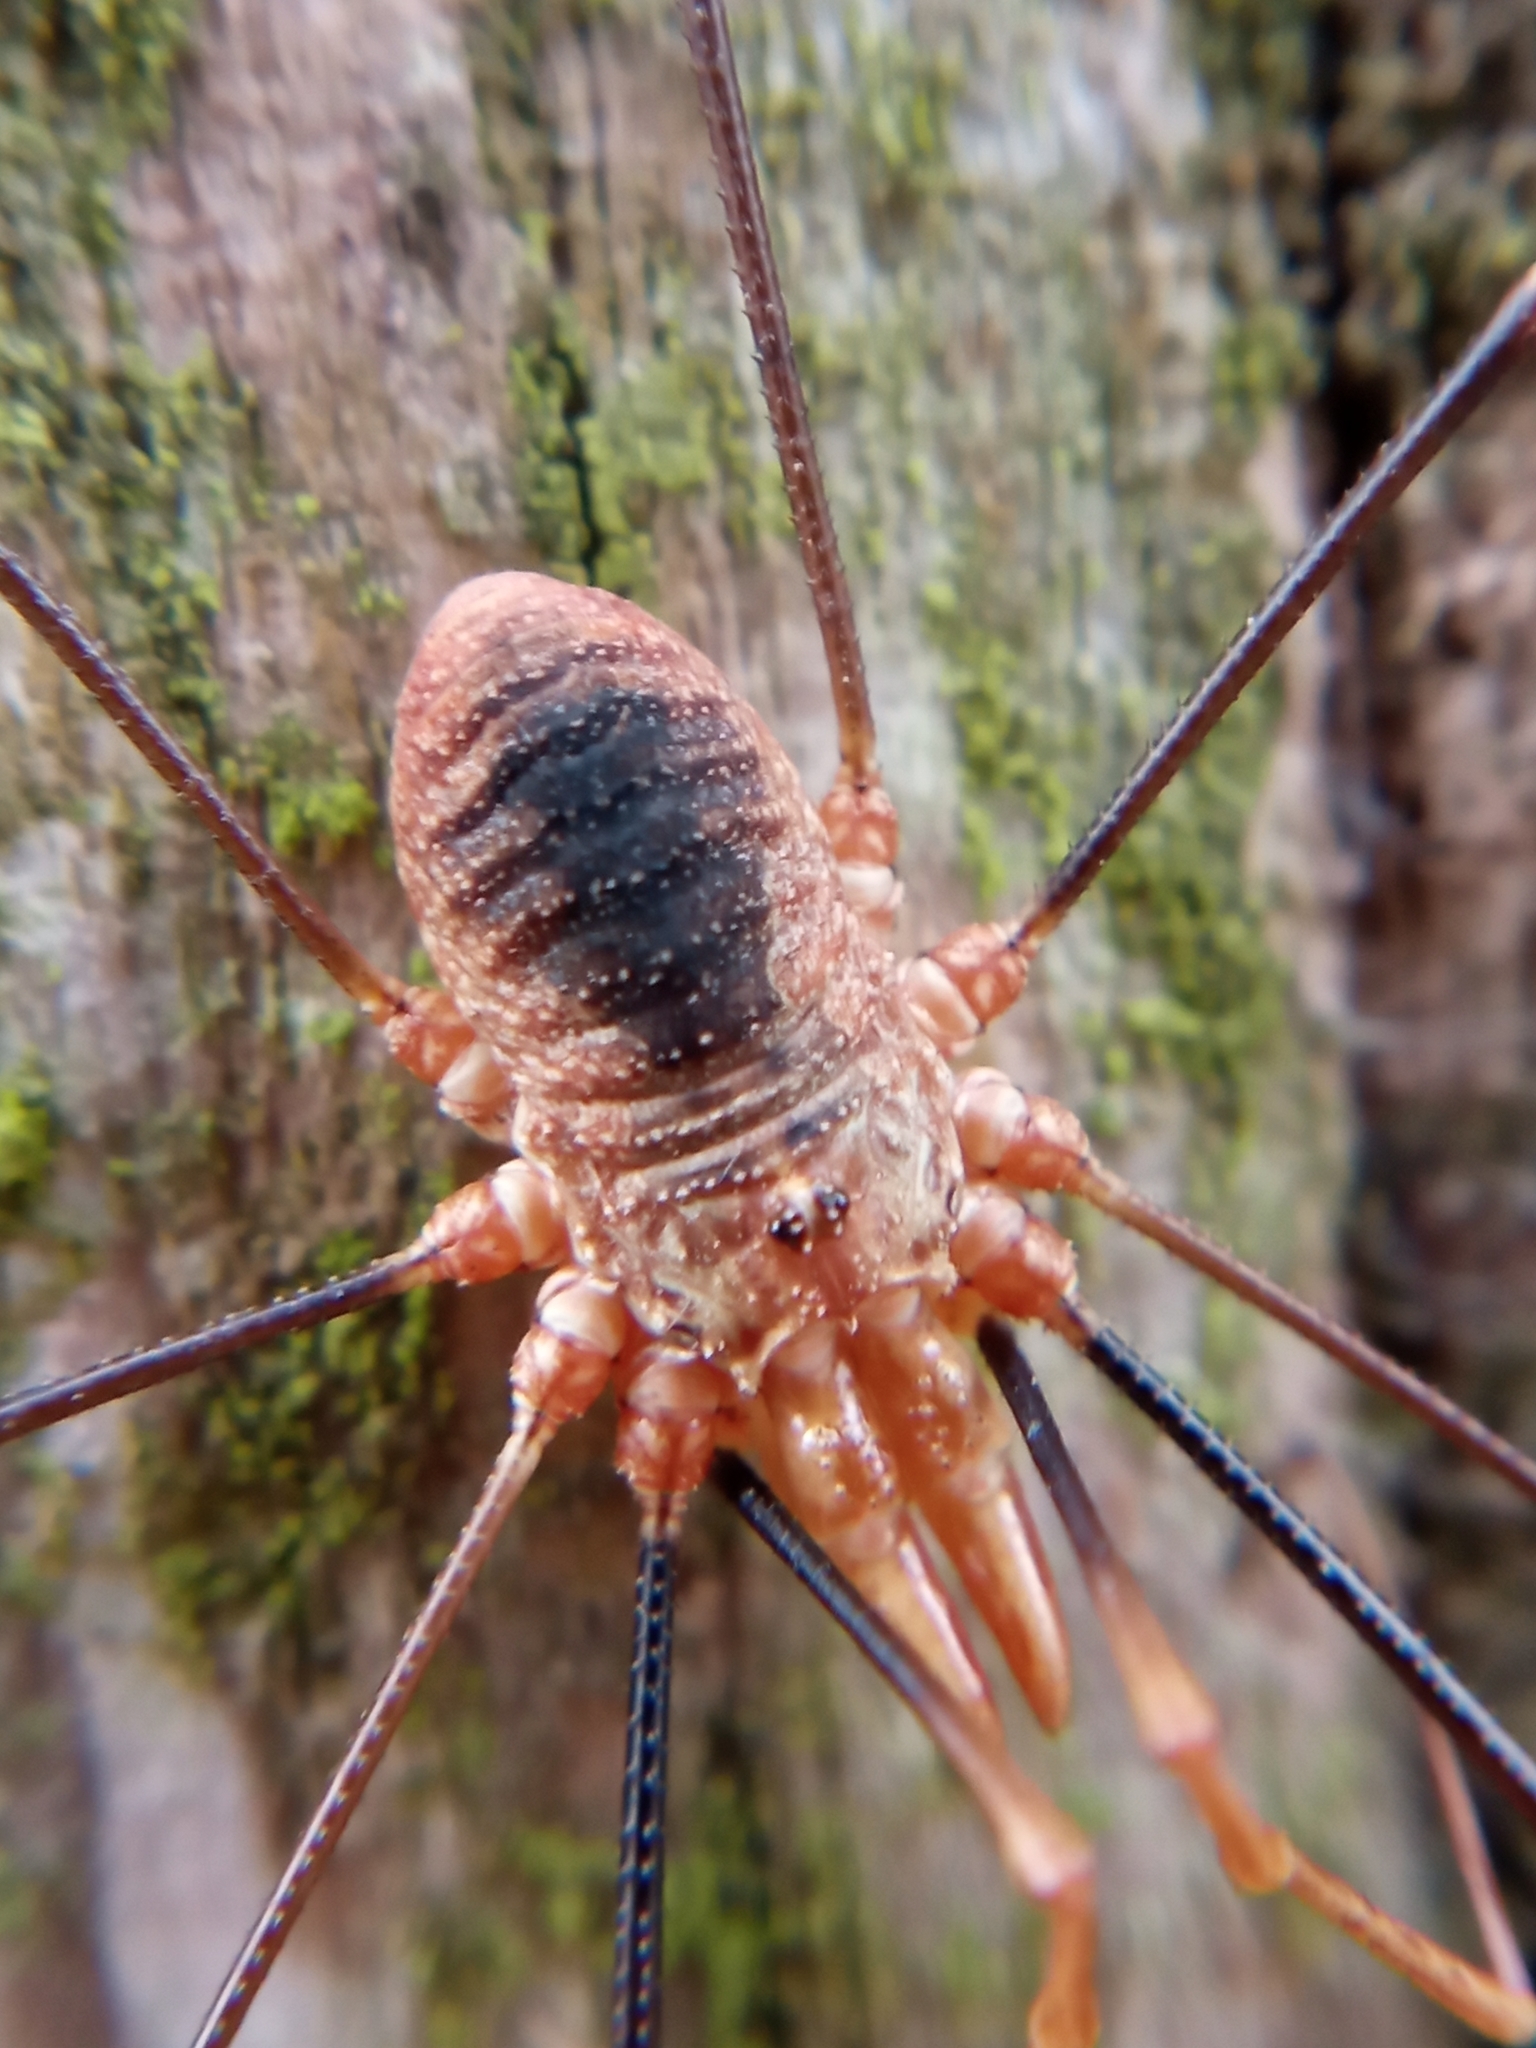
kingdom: Animalia
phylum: Arthropoda
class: Arachnida
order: Opiliones
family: Phalangiidae
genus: Phalangium
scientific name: Phalangium opilio
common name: Daddy longleg
